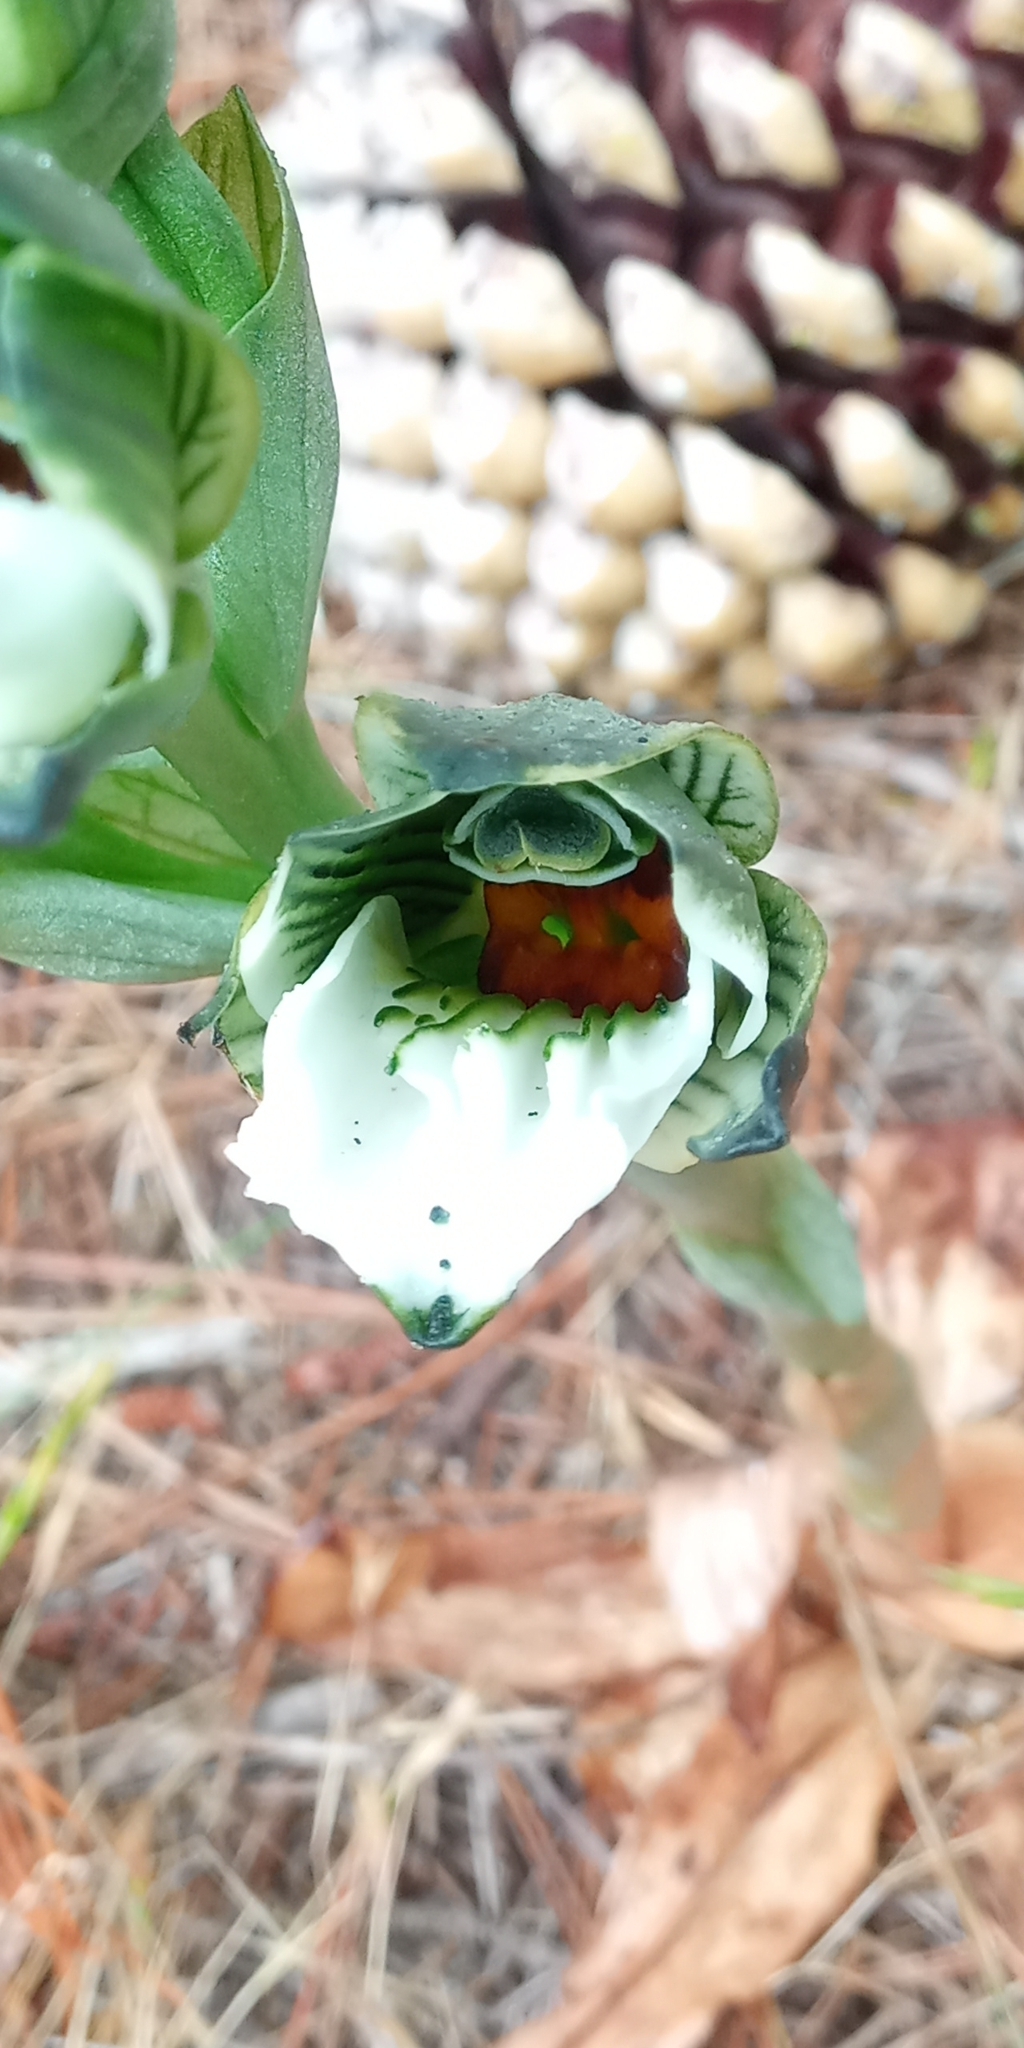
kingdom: Plantae
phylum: Tracheophyta
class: Liliopsida
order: Asparagales
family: Orchidaceae
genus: Chloraea
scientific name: Chloraea bletioides
